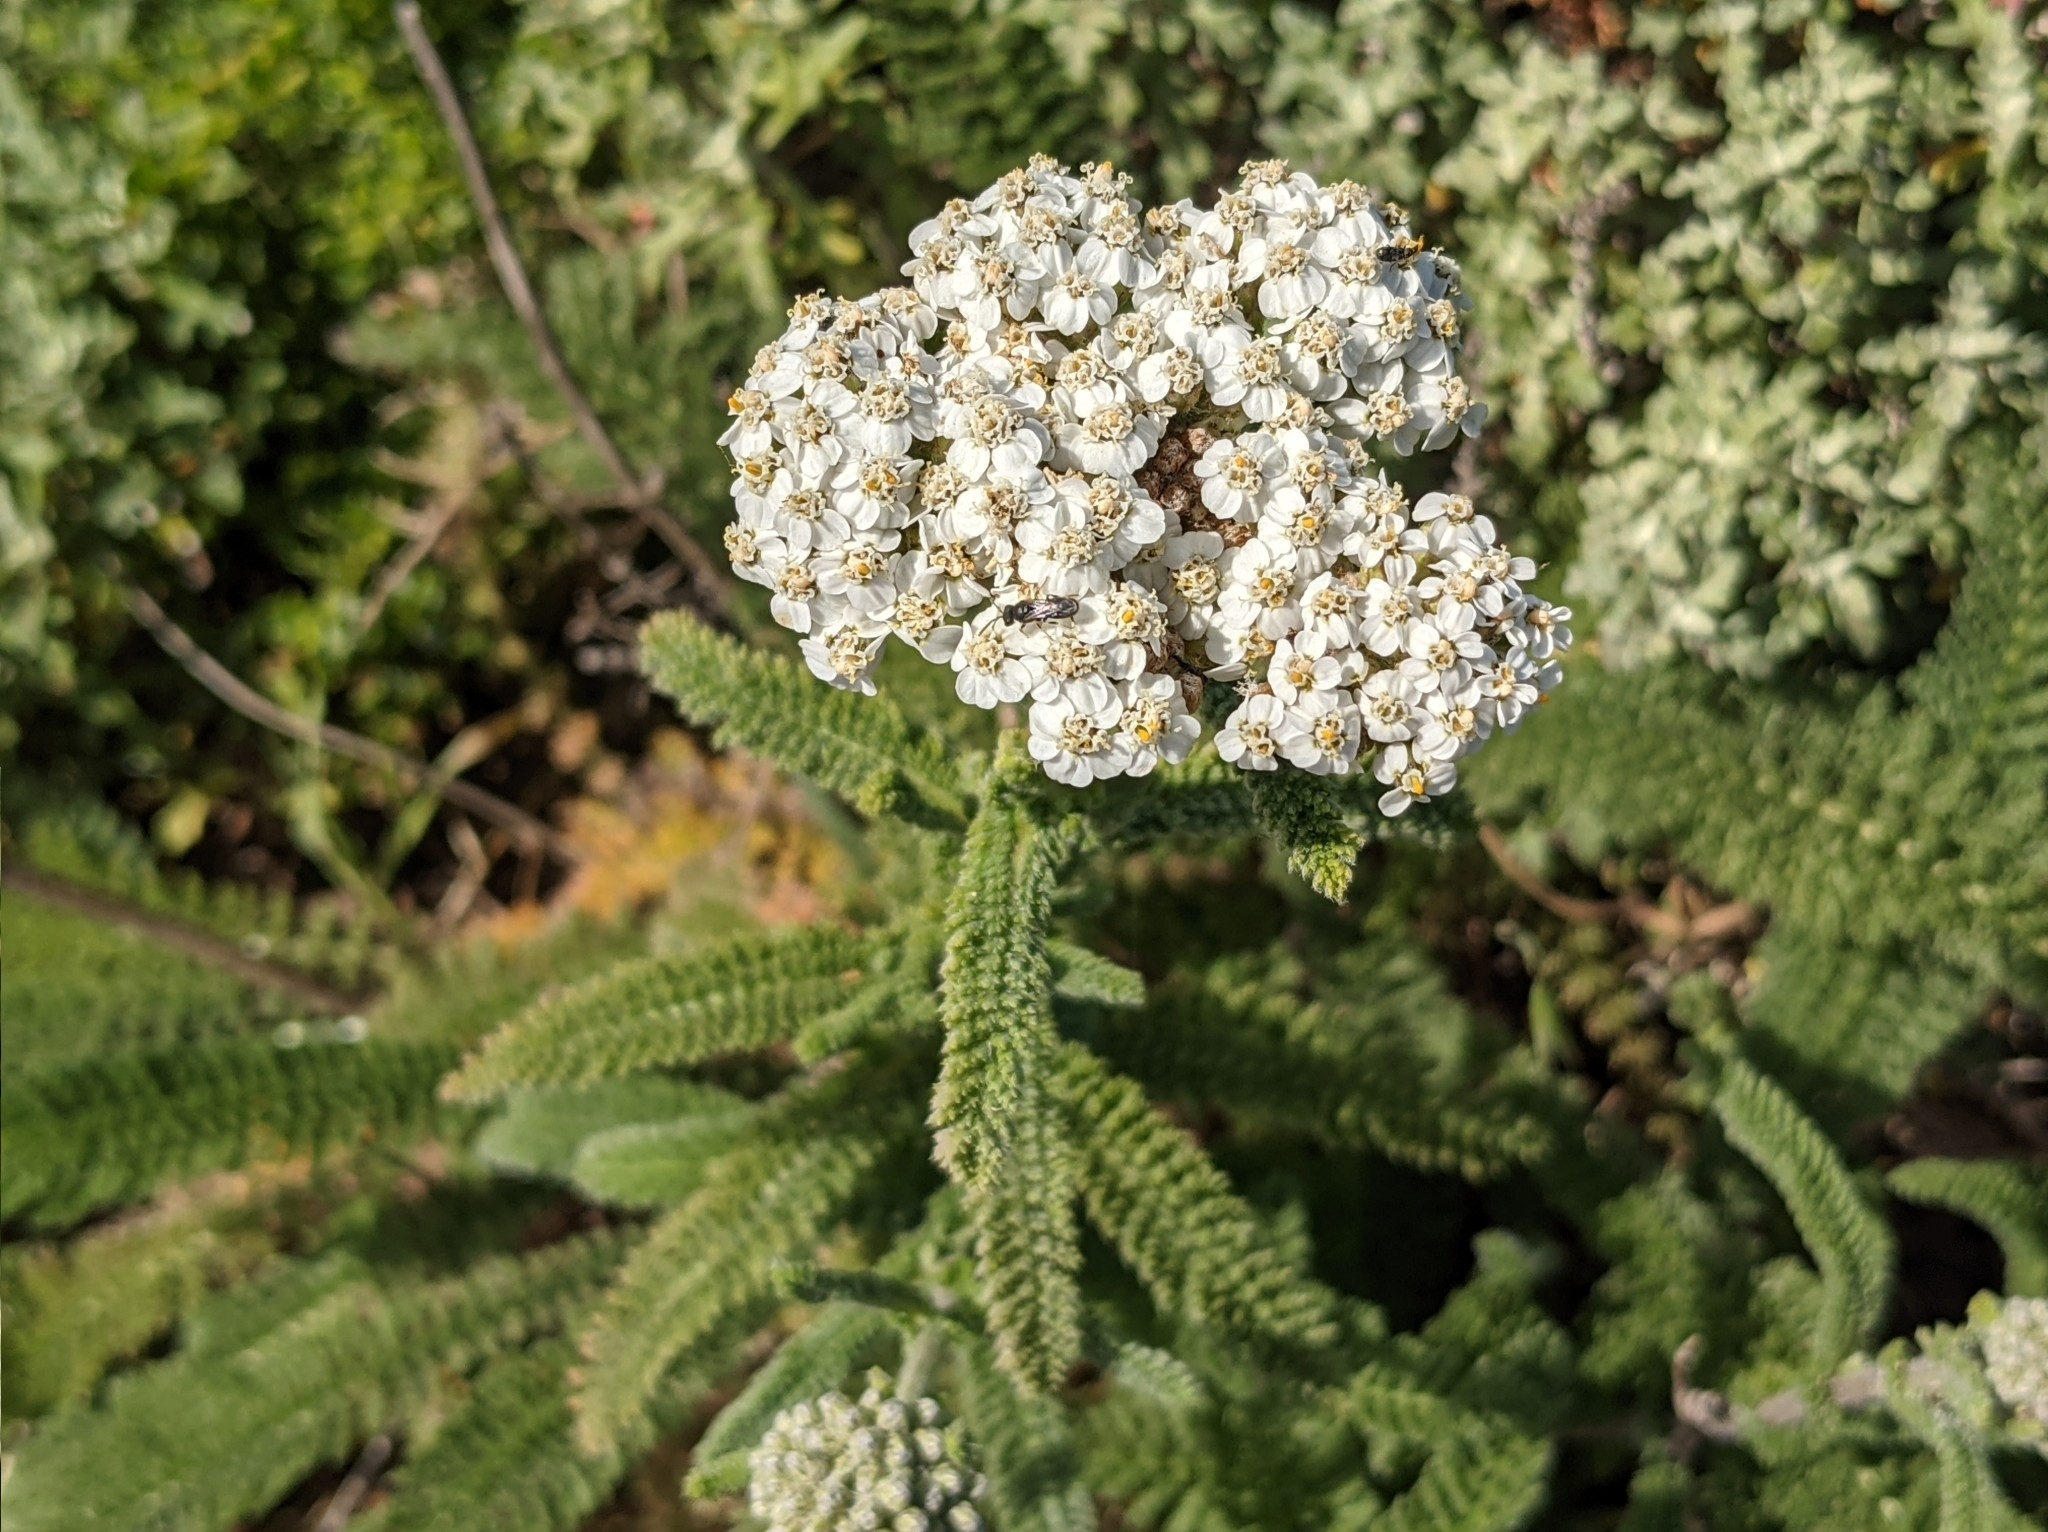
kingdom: Plantae
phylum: Tracheophyta
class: Magnoliopsida
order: Asterales
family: Asteraceae
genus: Achillea
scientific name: Achillea millefolium
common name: Yarrow
